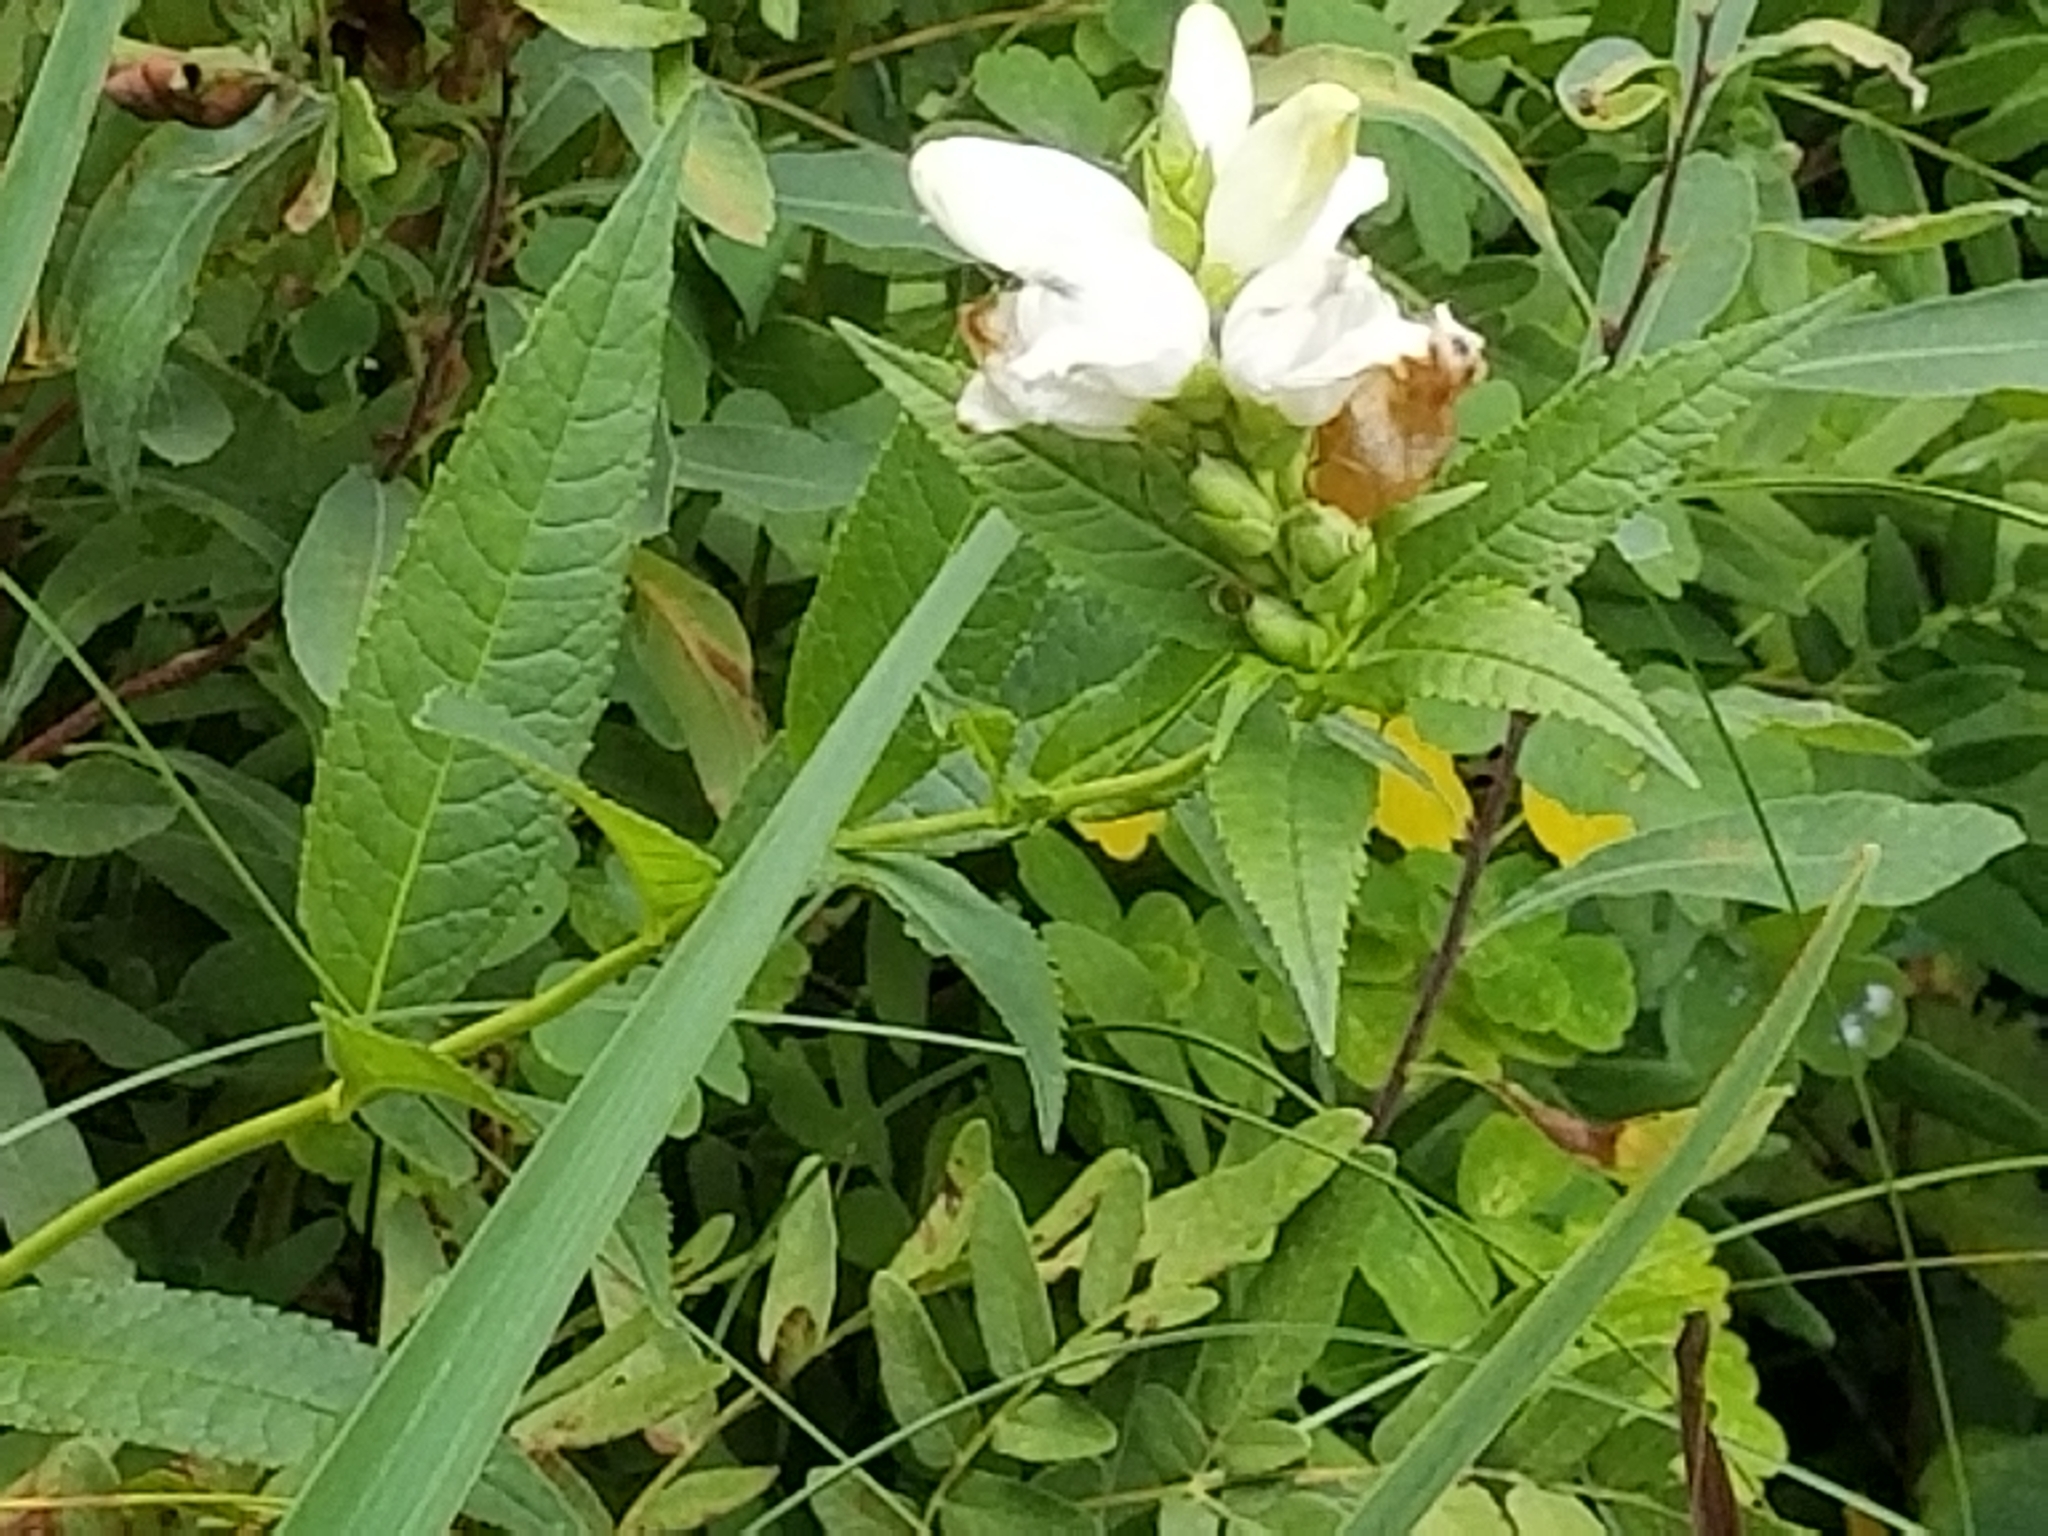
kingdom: Plantae
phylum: Tracheophyta
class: Magnoliopsida
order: Lamiales
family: Plantaginaceae
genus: Chelone
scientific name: Chelone glabra
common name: Snakehead
